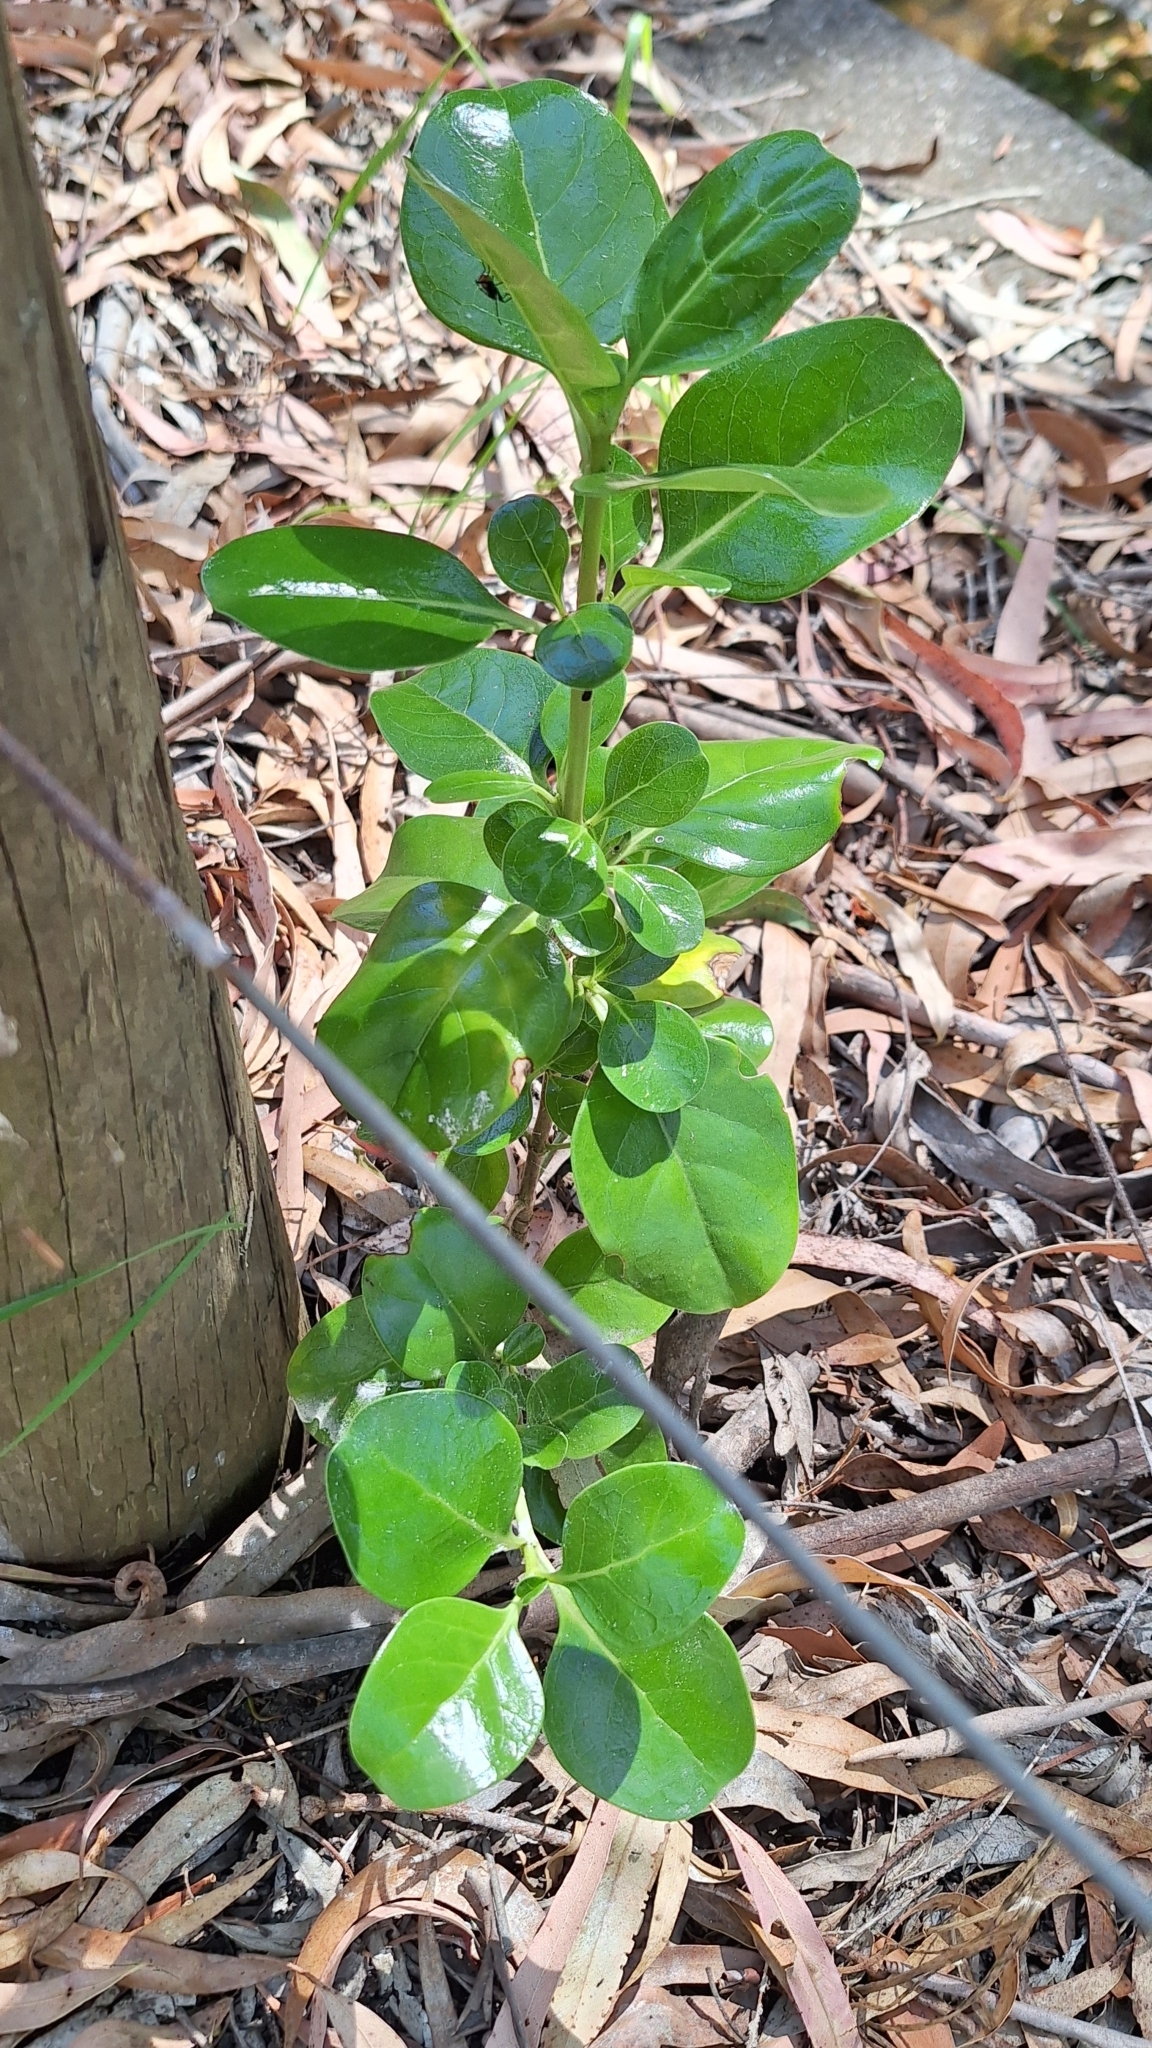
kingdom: Plantae
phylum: Tracheophyta
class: Magnoliopsida
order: Gentianales
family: Rubiaceae
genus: Coprosma
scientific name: Coprosma repens
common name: Tree bedstraw
